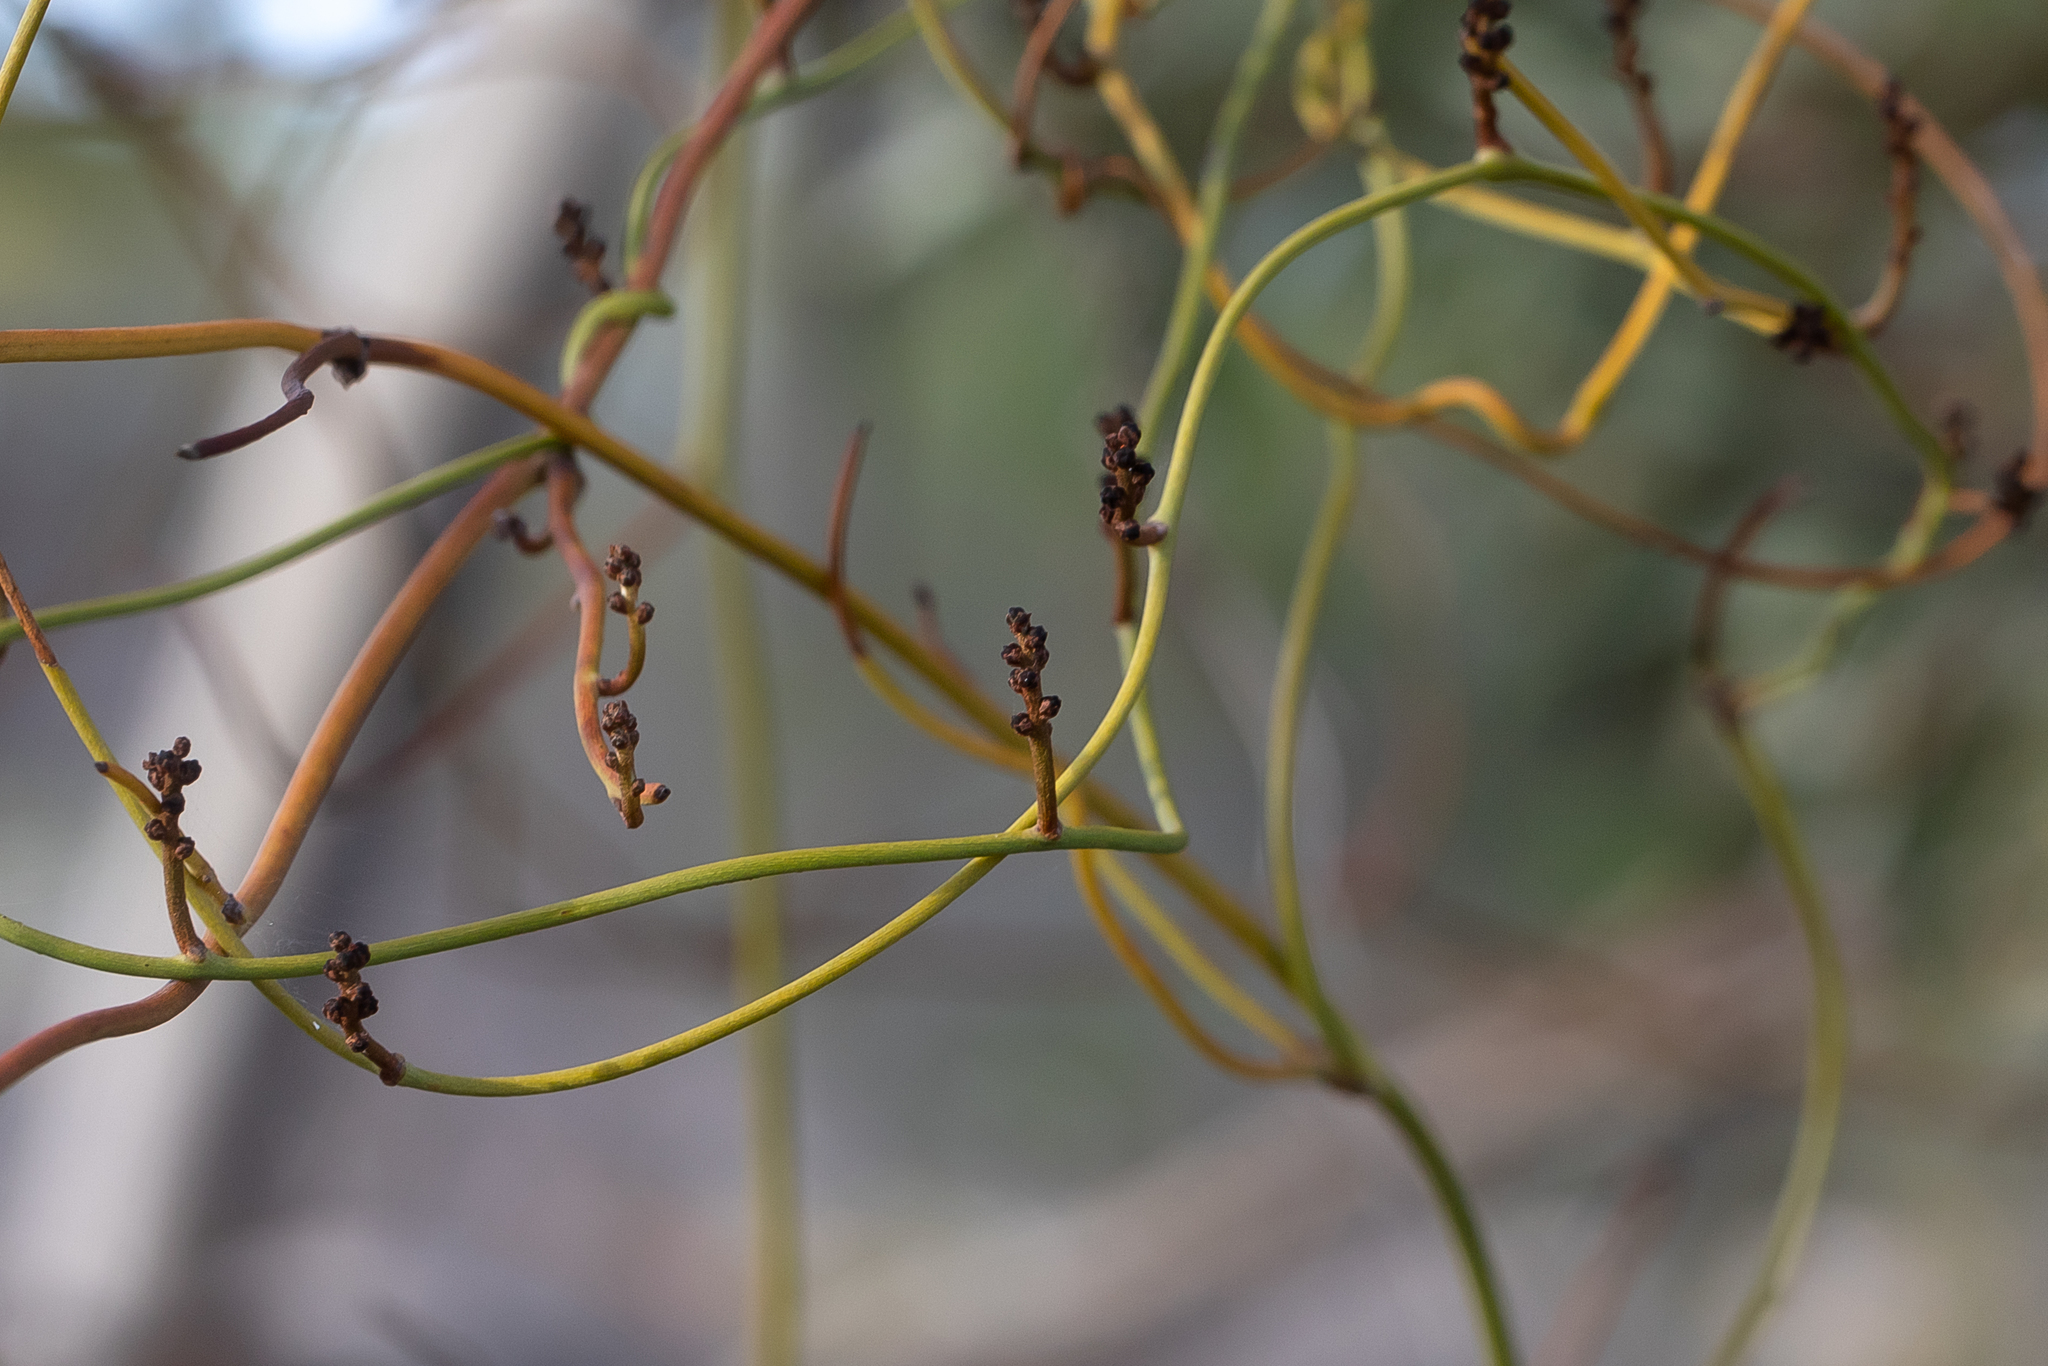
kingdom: Plantae
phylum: Tracheophyta
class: Magnoliopsida
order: Laurales
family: Lauraceae
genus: Cassytha
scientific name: Cassytha melantha
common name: Mallee stranglevine
